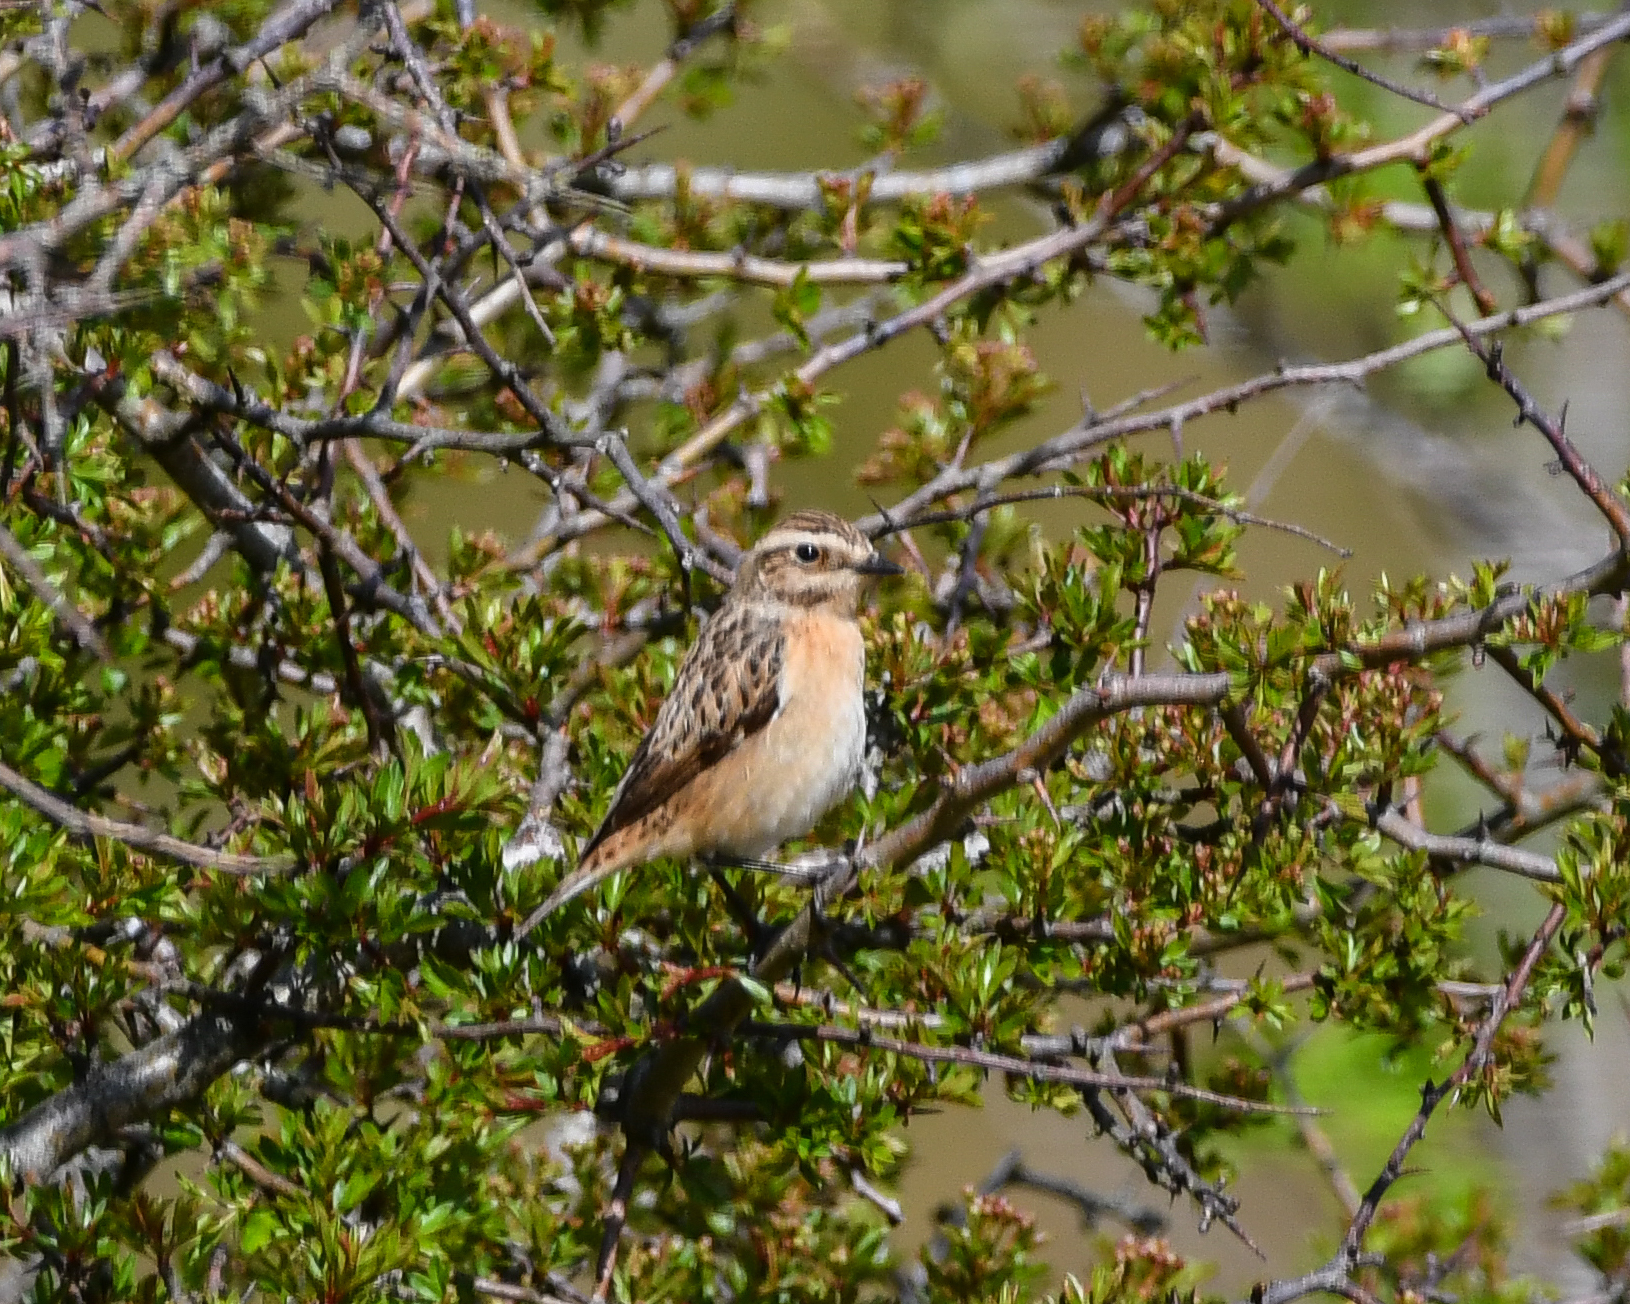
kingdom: Animalia
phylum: Chordata
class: Aves
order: Passeriformes
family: Muscicapidae
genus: Saxicola
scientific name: Saxicola rubetra
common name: Whinchat
